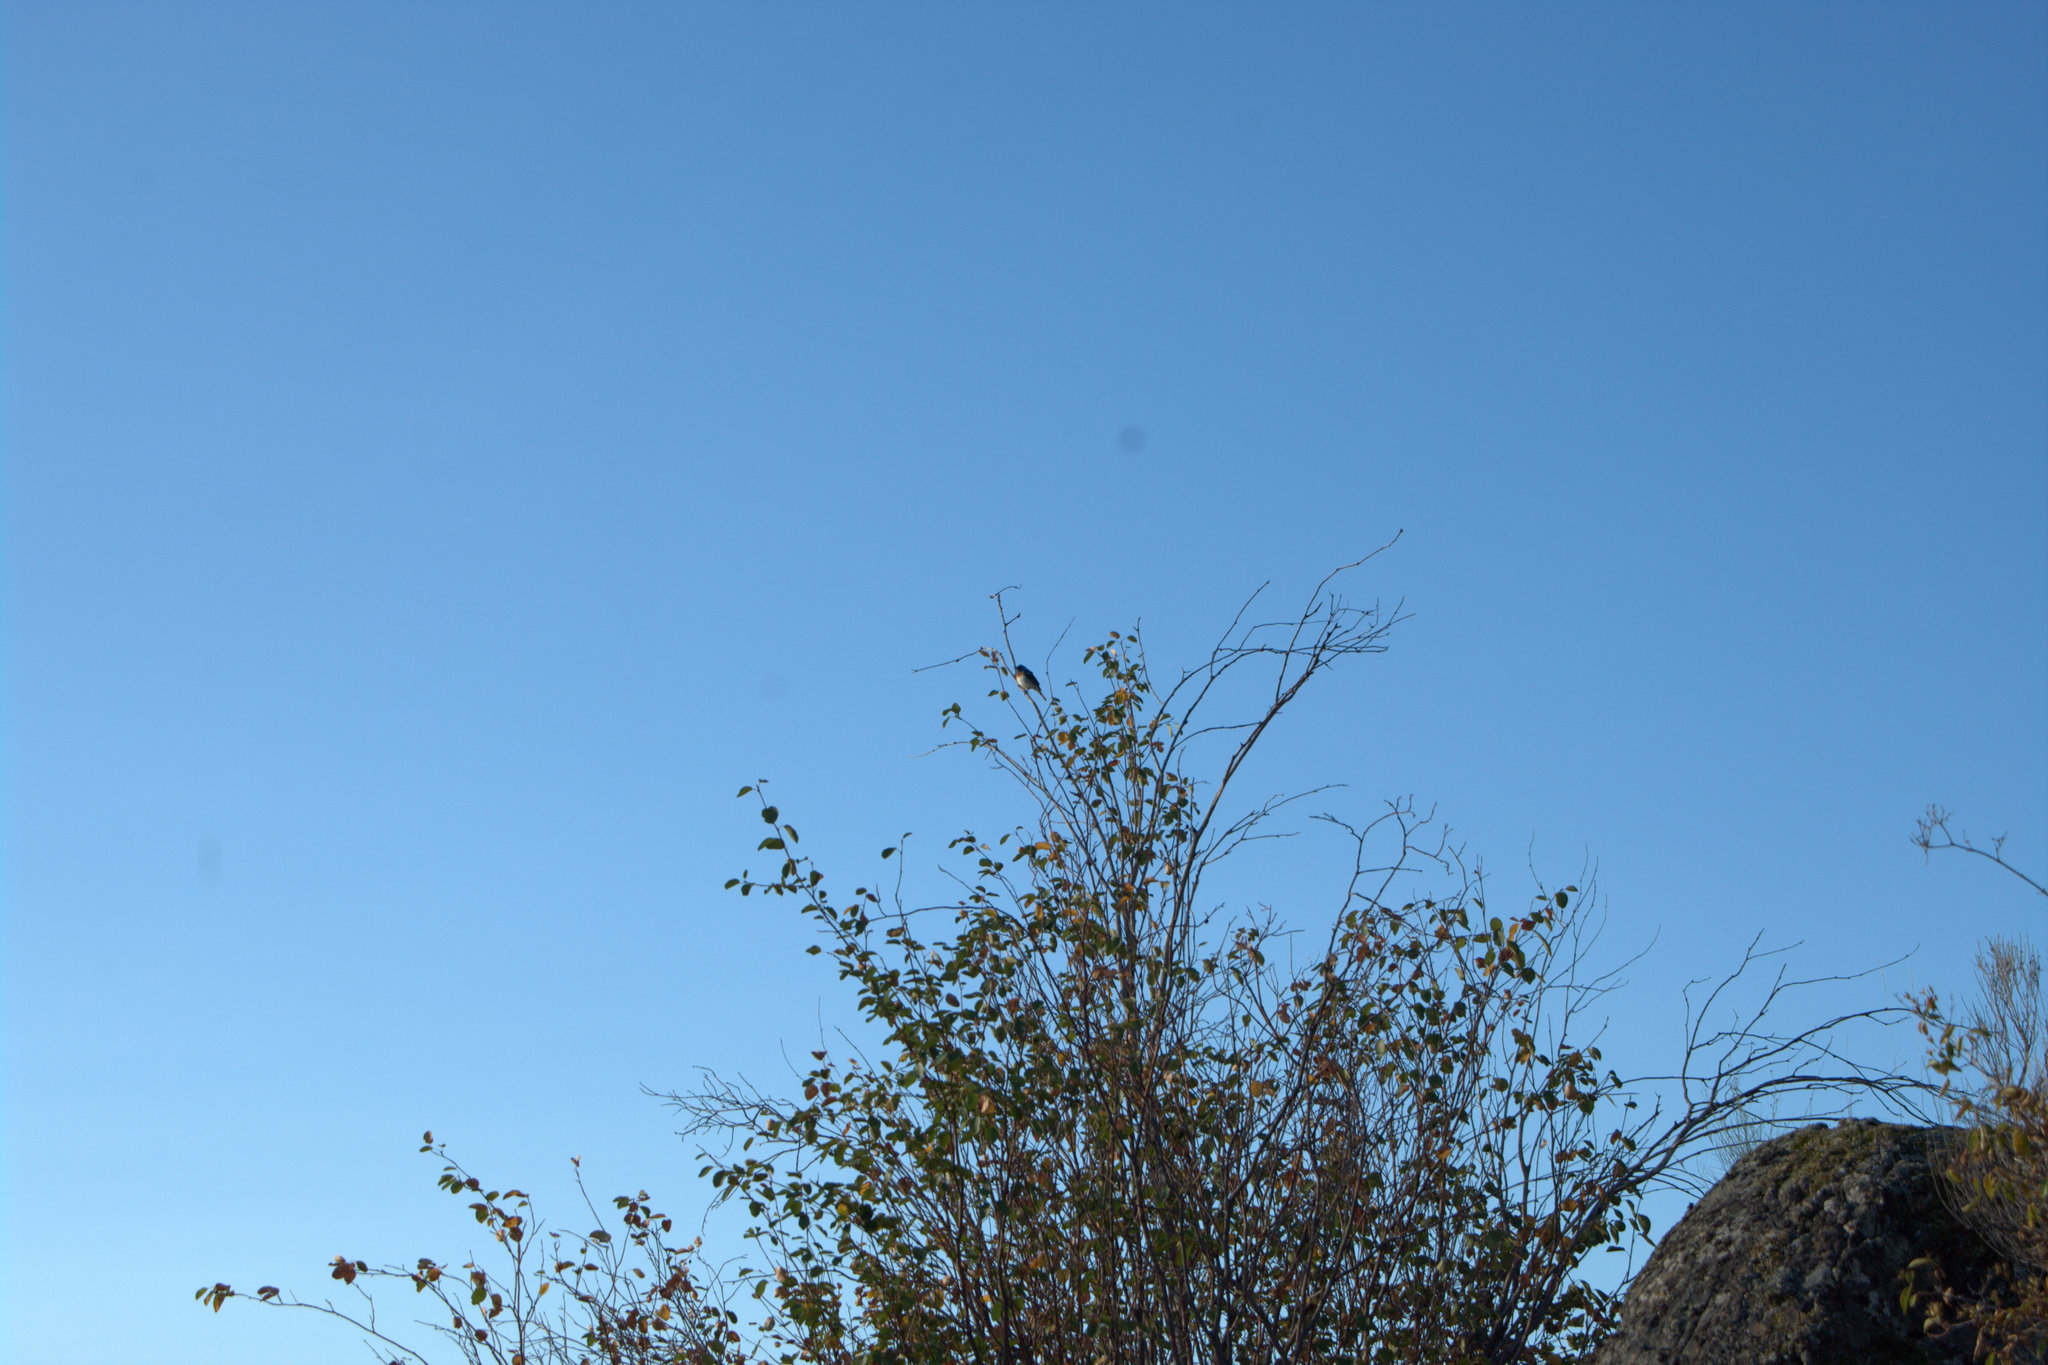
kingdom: Animalia
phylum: Chordata
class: Aves
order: Passeriformes
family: Cardinalidae
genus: Passerina
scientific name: Passerina amoena
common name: Lazuli bunting
